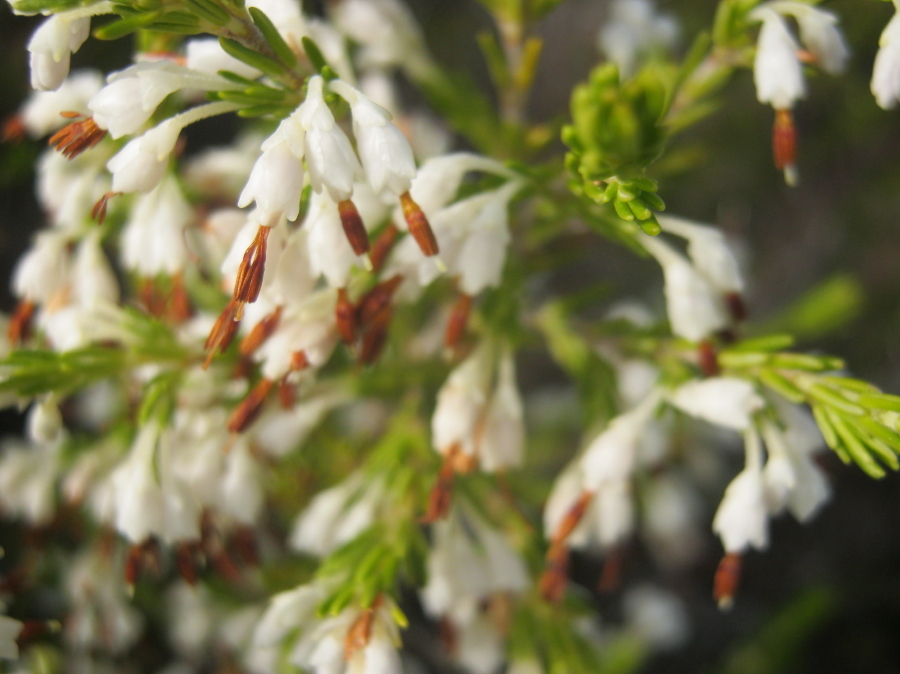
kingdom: Plantae
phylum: Tracheophyta
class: Magnoliopsida
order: Ericales
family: Ericaceae
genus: Erica
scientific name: Erica imbricata
